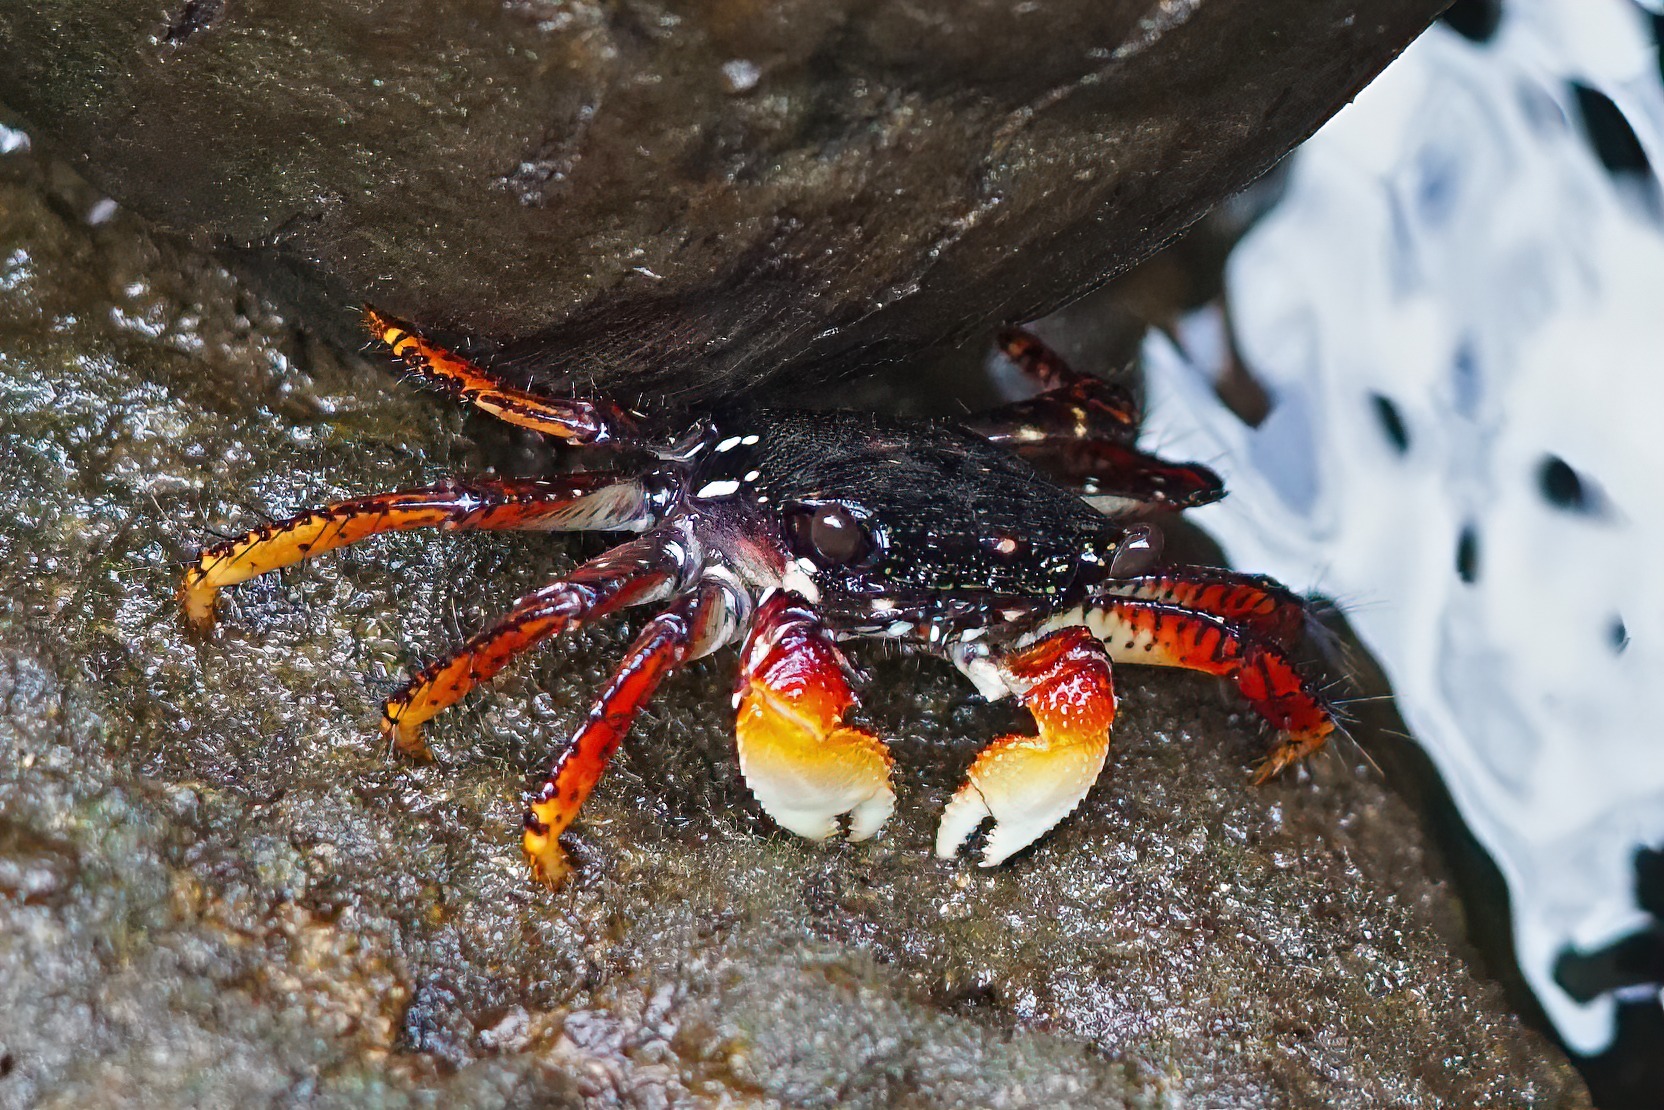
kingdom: Animalia
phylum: Arthropoda
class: Malacostraca
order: Decapoda
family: Grapsidae
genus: Goniopsis
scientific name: Goniopsis cruentata
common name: Mangrove crab
